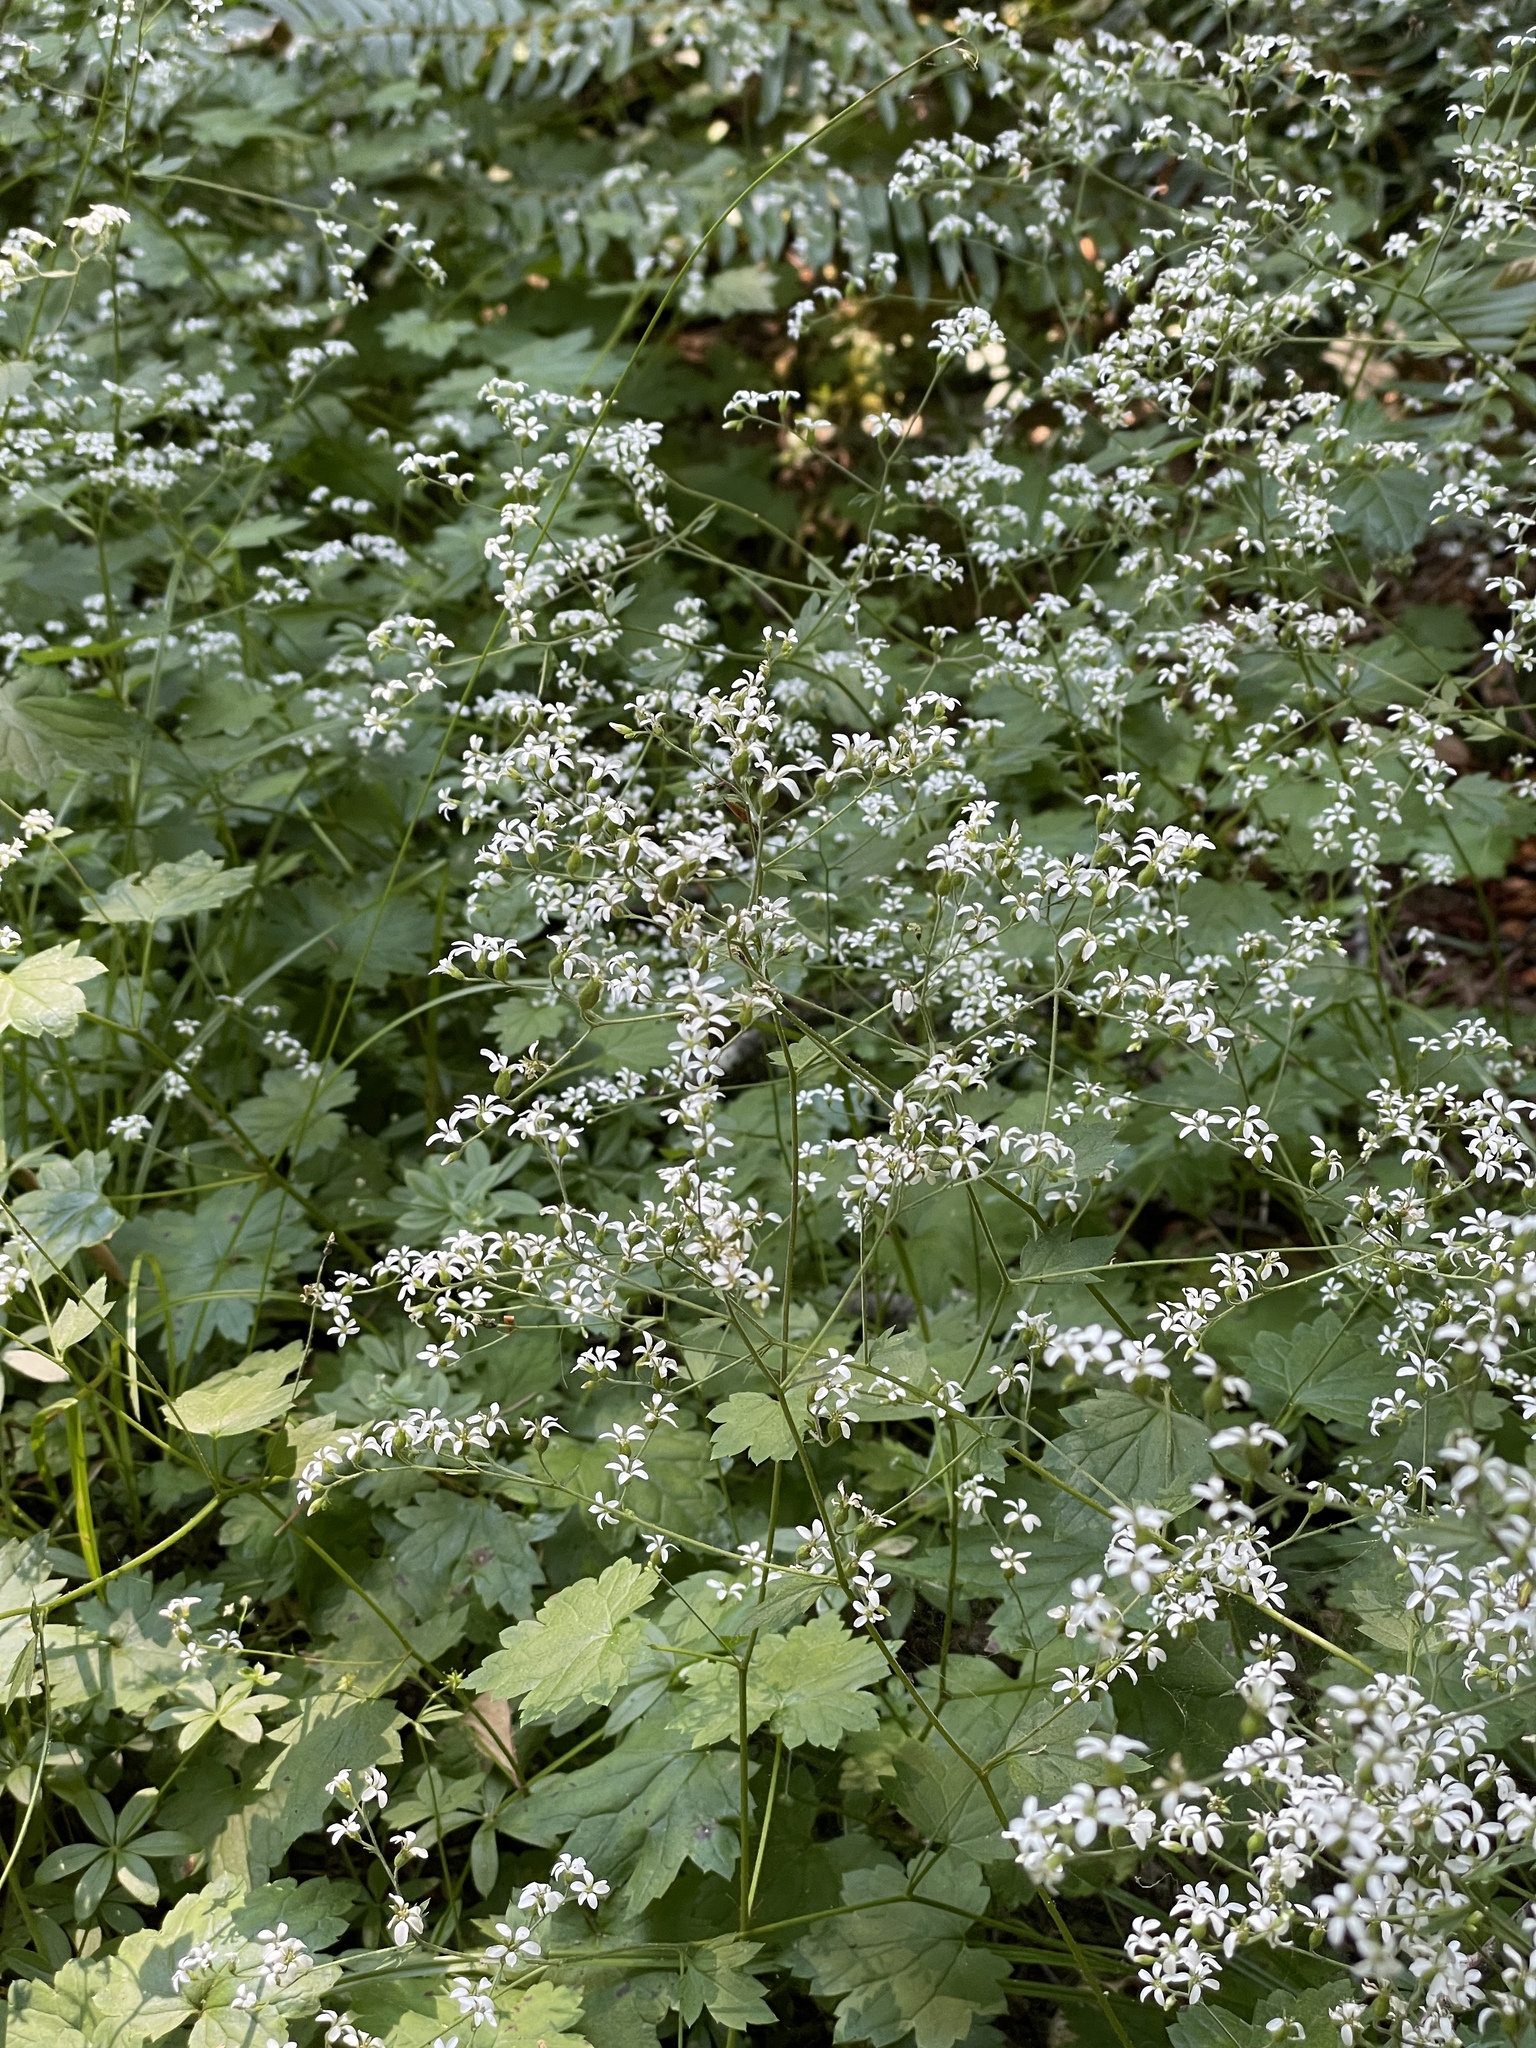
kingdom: Plantae
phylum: Tracheophyta
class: Magnoliopsida
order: Saxifragales
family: Saxifragaceae
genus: Boykinia
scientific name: Boykinia occidentalis
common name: Coast boykinia
